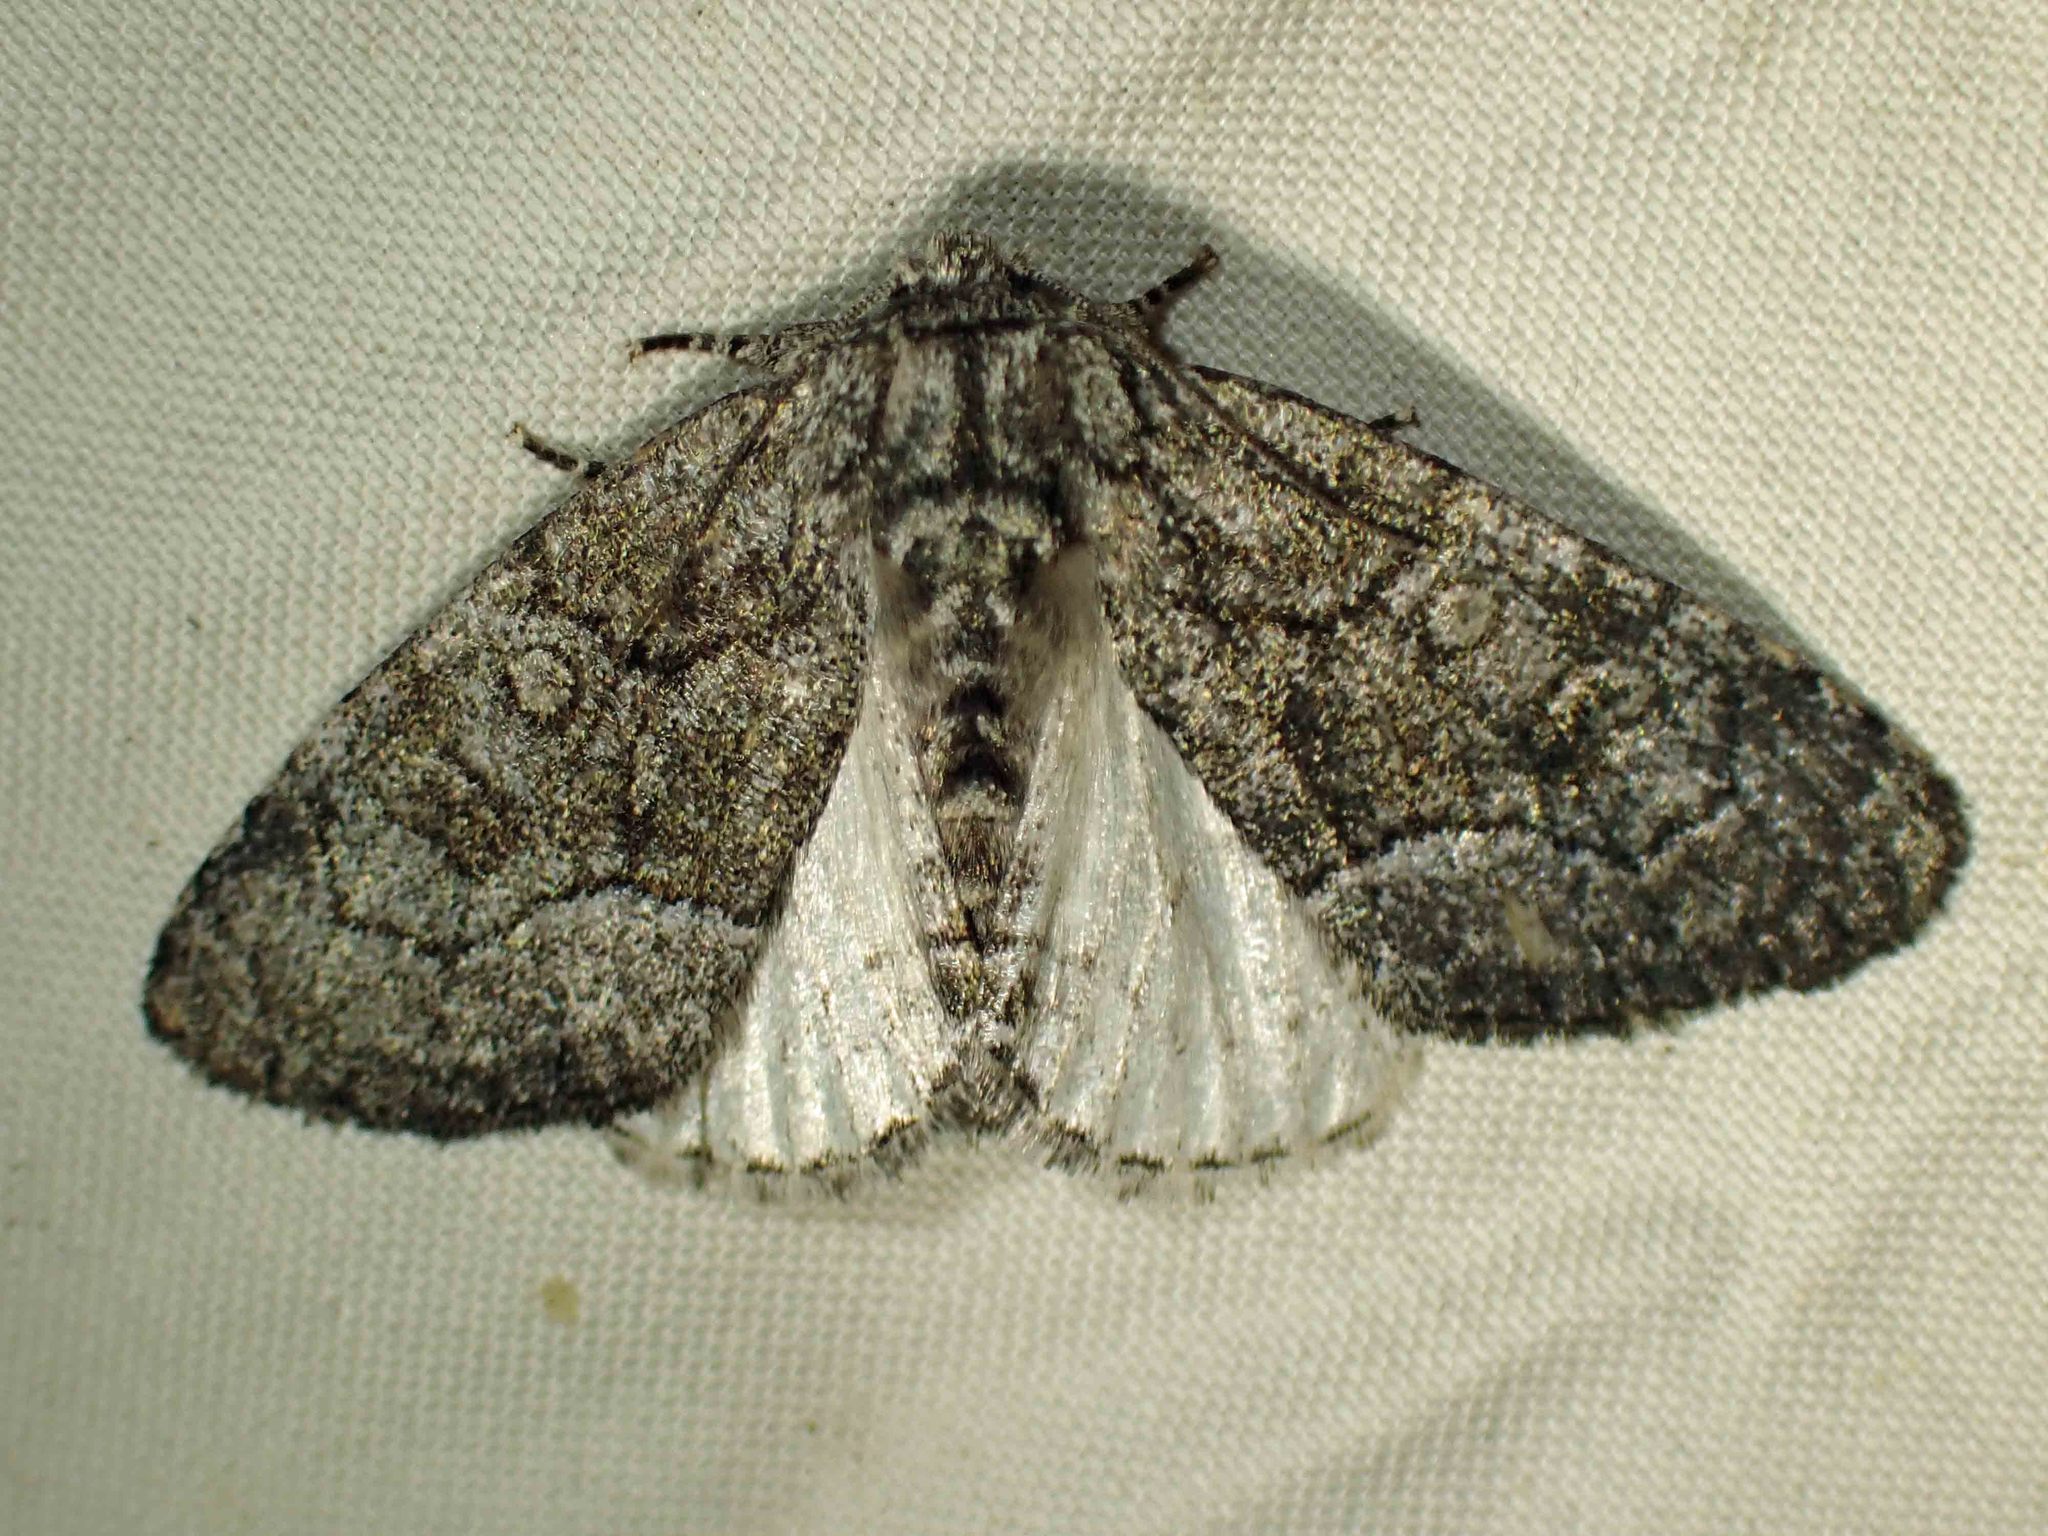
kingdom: Animalia
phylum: Arthropoda
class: Insecta
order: Lepidoptera
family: Noctuidae
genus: Raphia
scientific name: Raphia frater
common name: Brother
